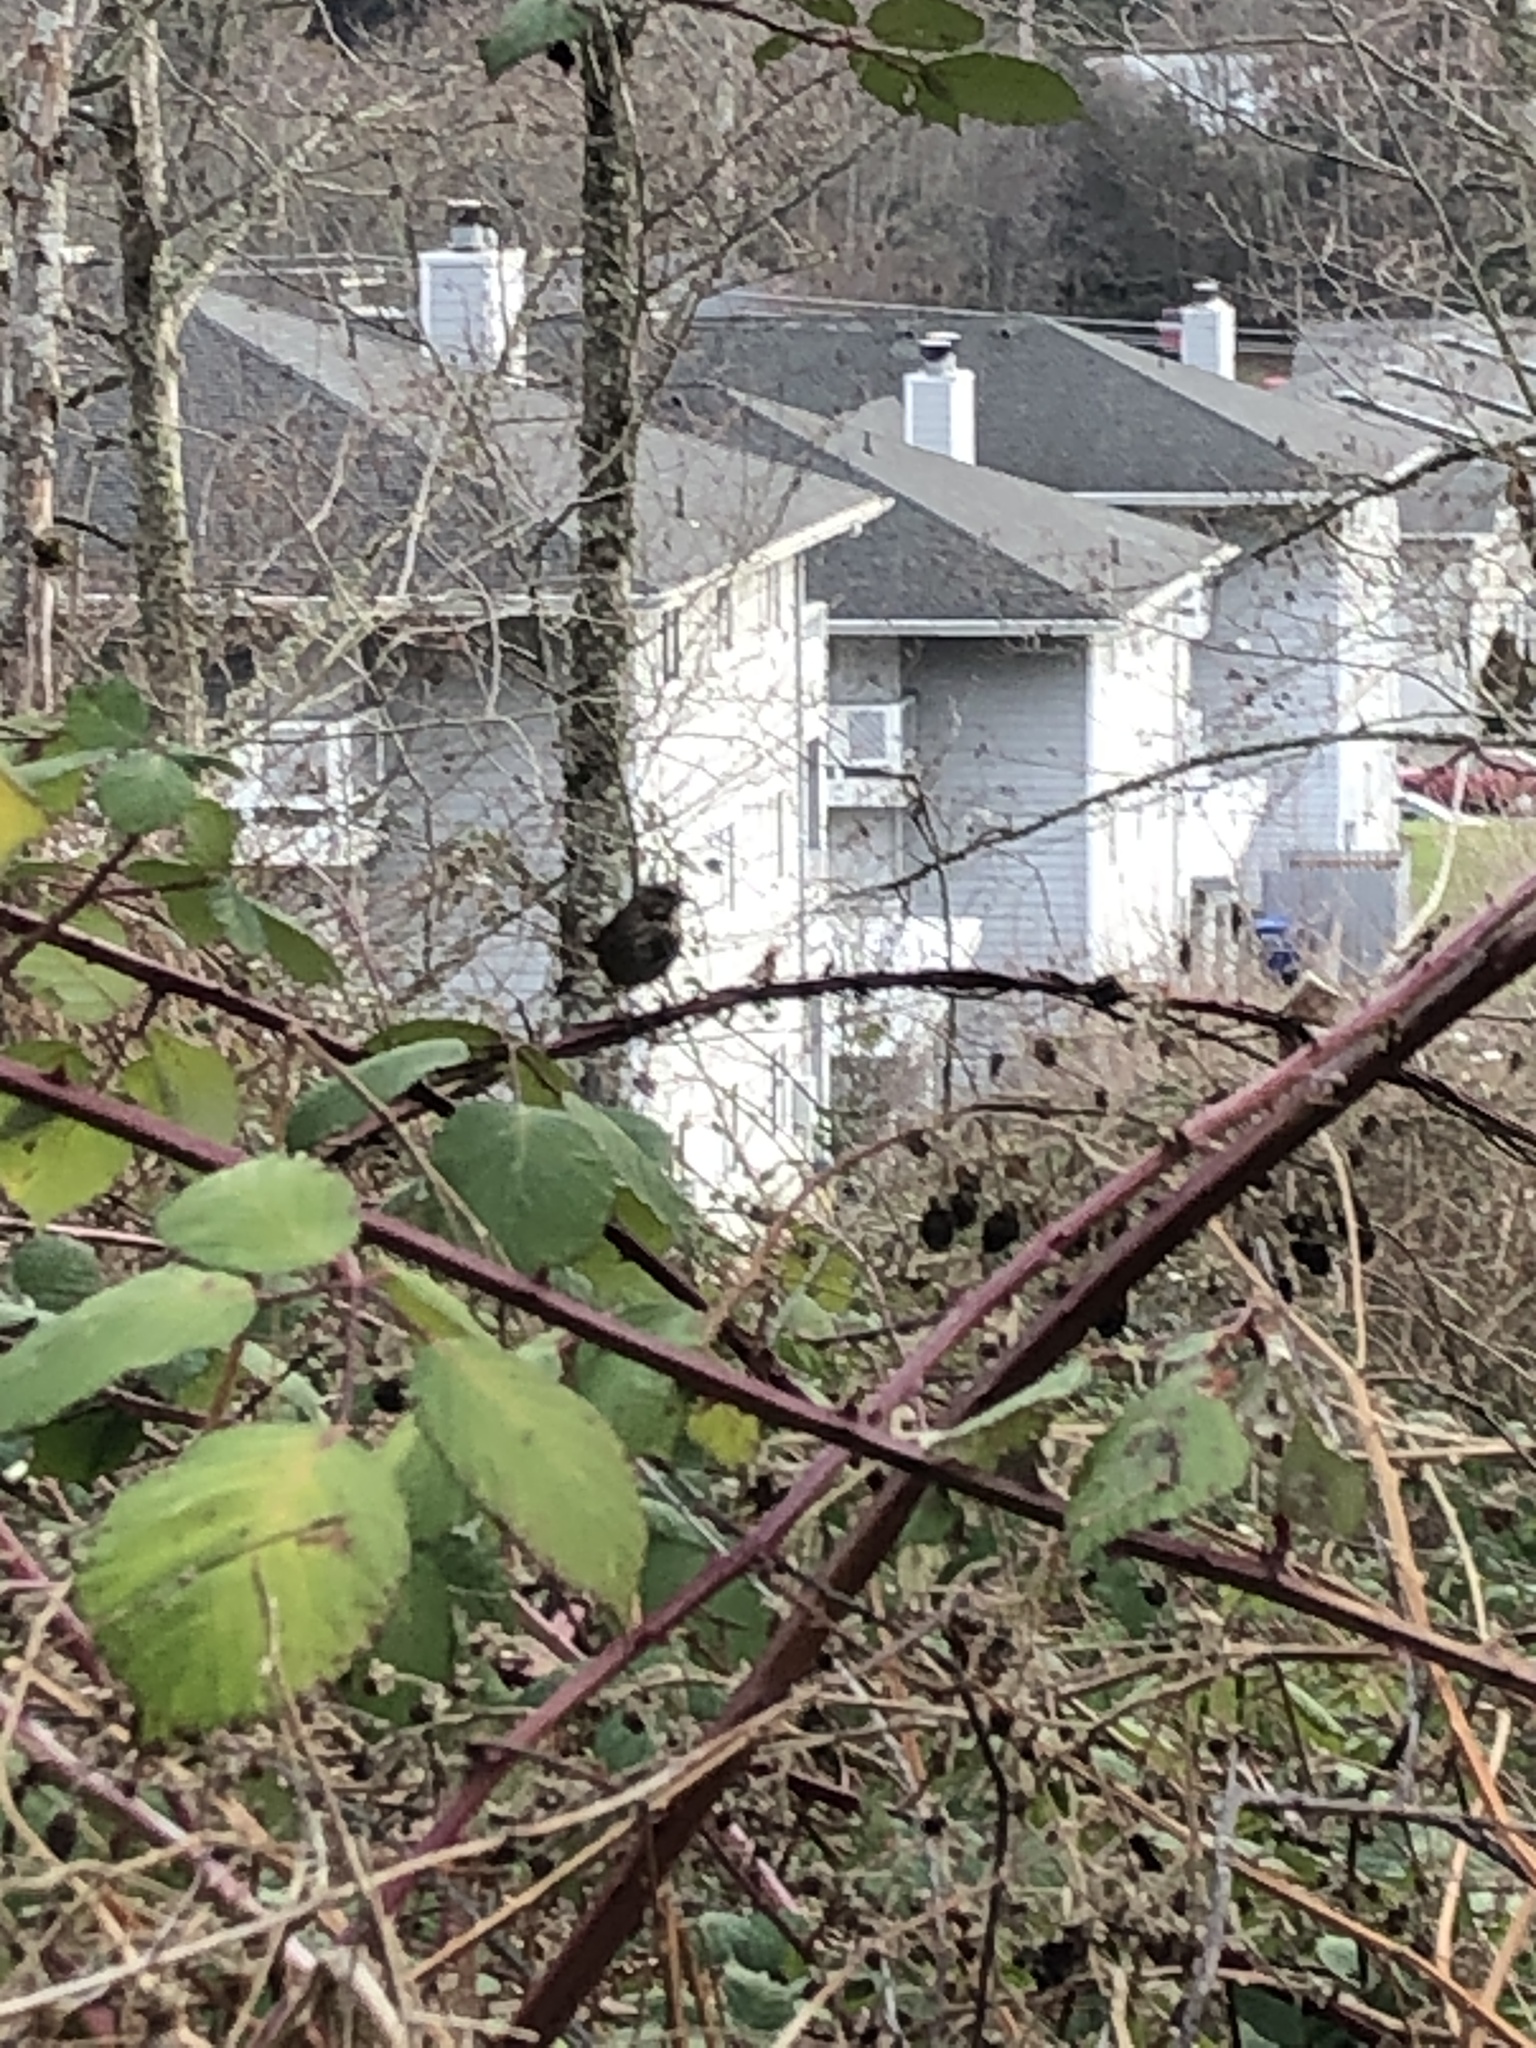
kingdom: Animalia
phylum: Chordata
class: Aves
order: Passeriformes
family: Passerellidae
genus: Passerella
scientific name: Passerella iliaca
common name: Fox sparrow
